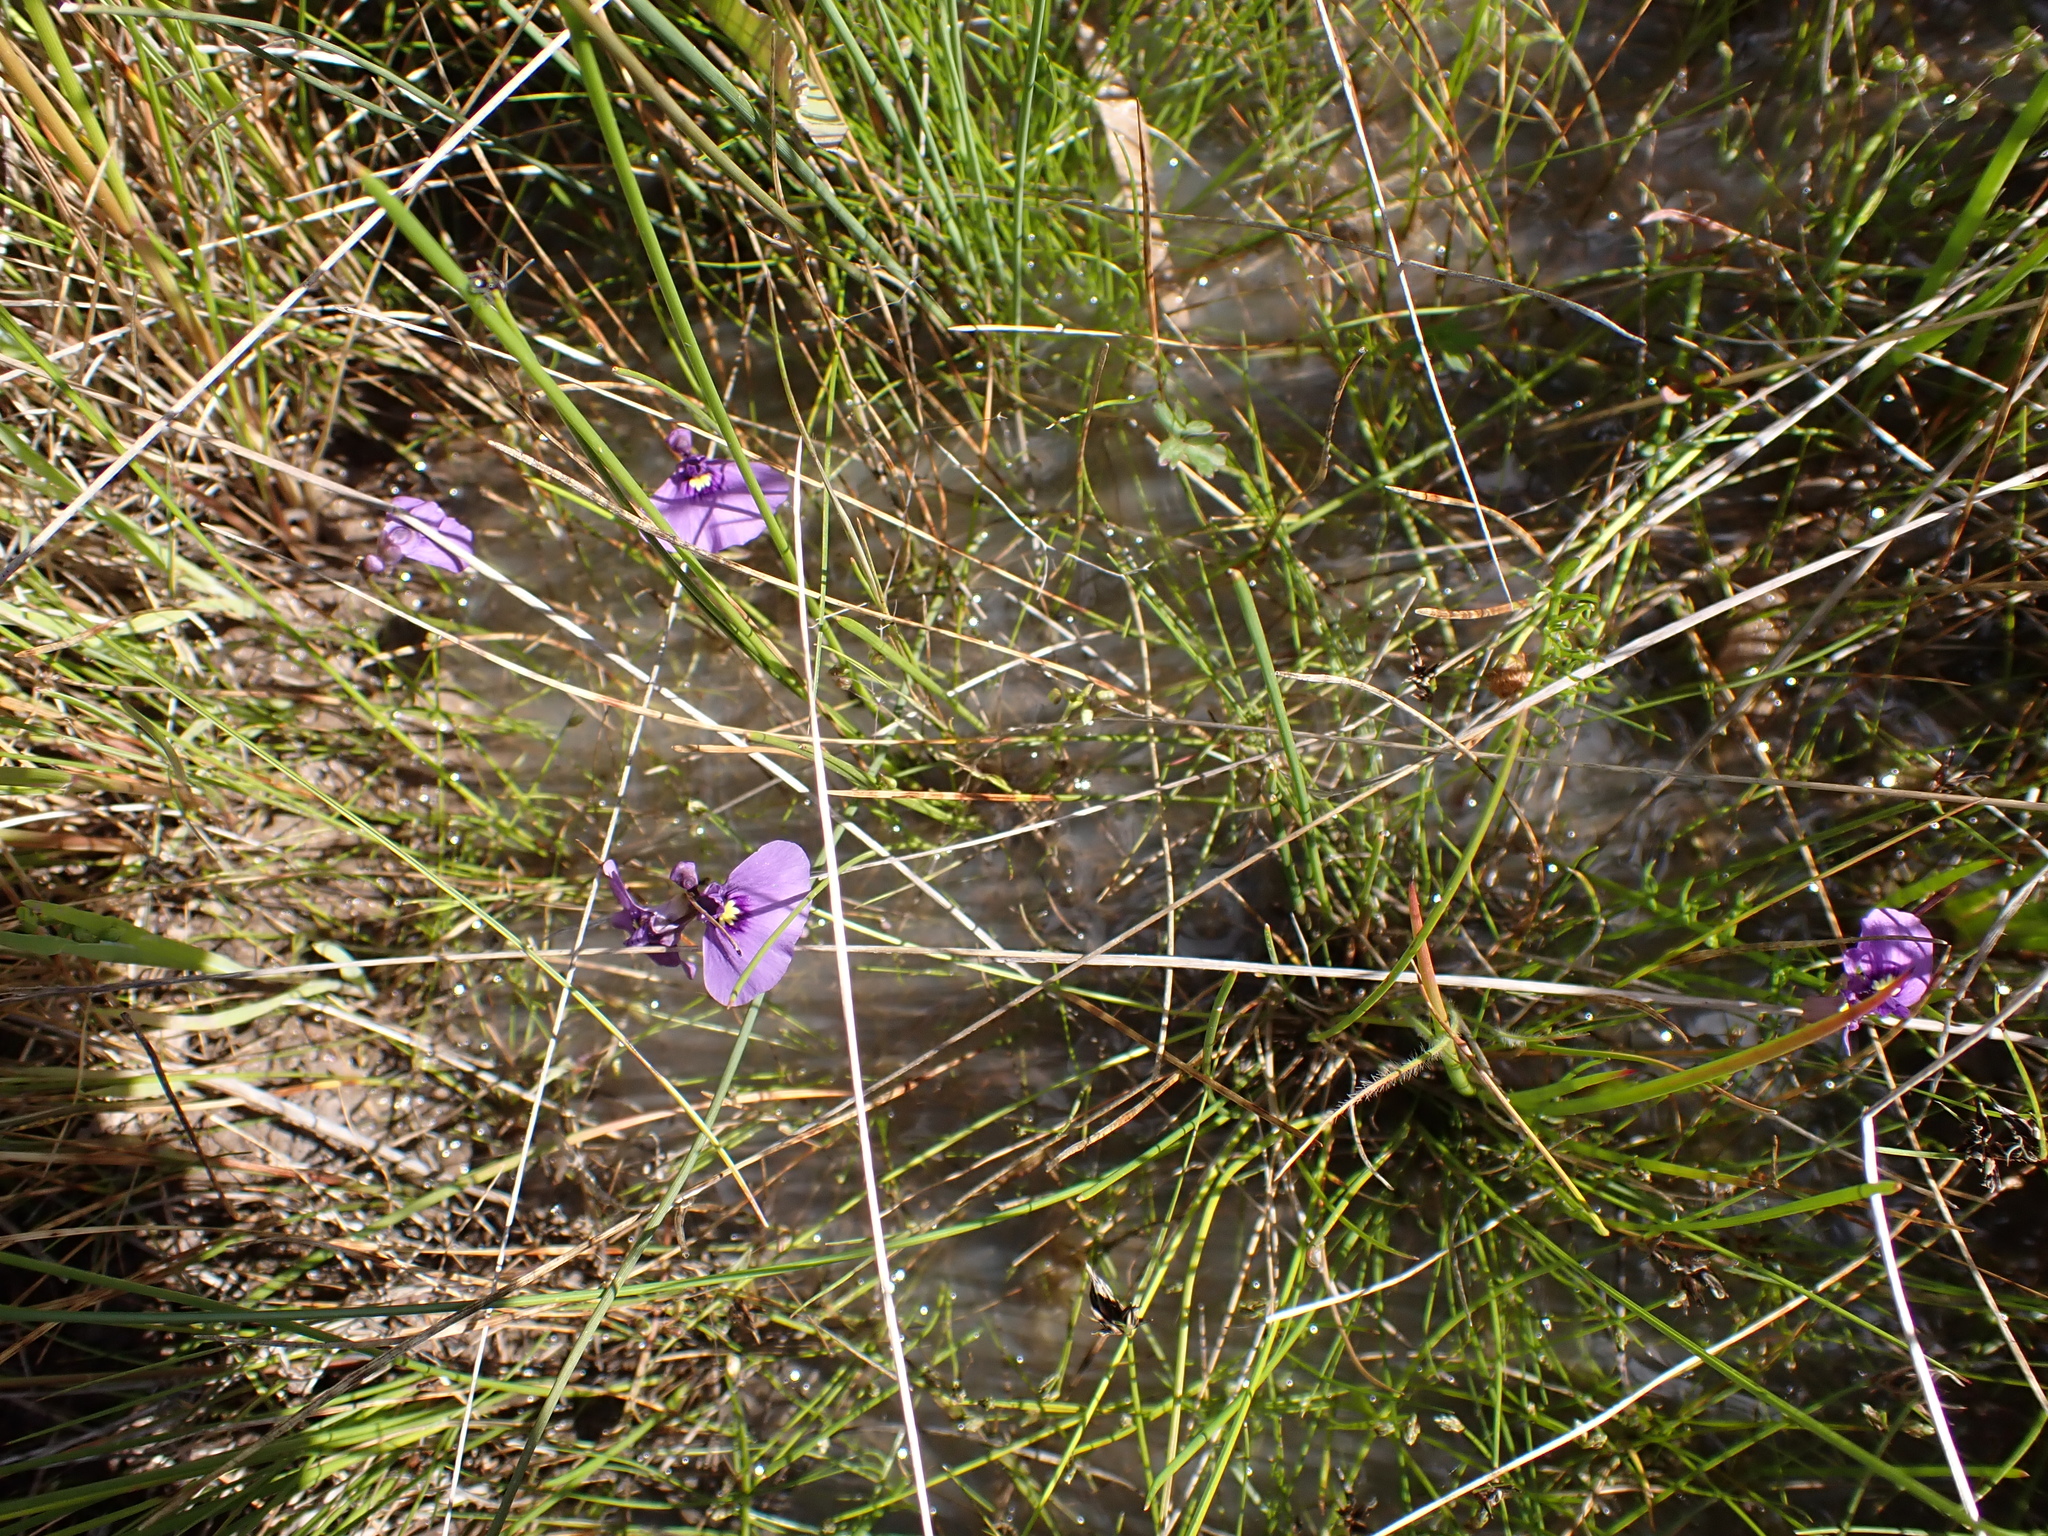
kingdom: Plantae
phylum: Tracheophyta
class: Magnoliopsida
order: Lamiales
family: Lentibulariaceae
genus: Utricularia
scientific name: Utricularia beaugleholei
